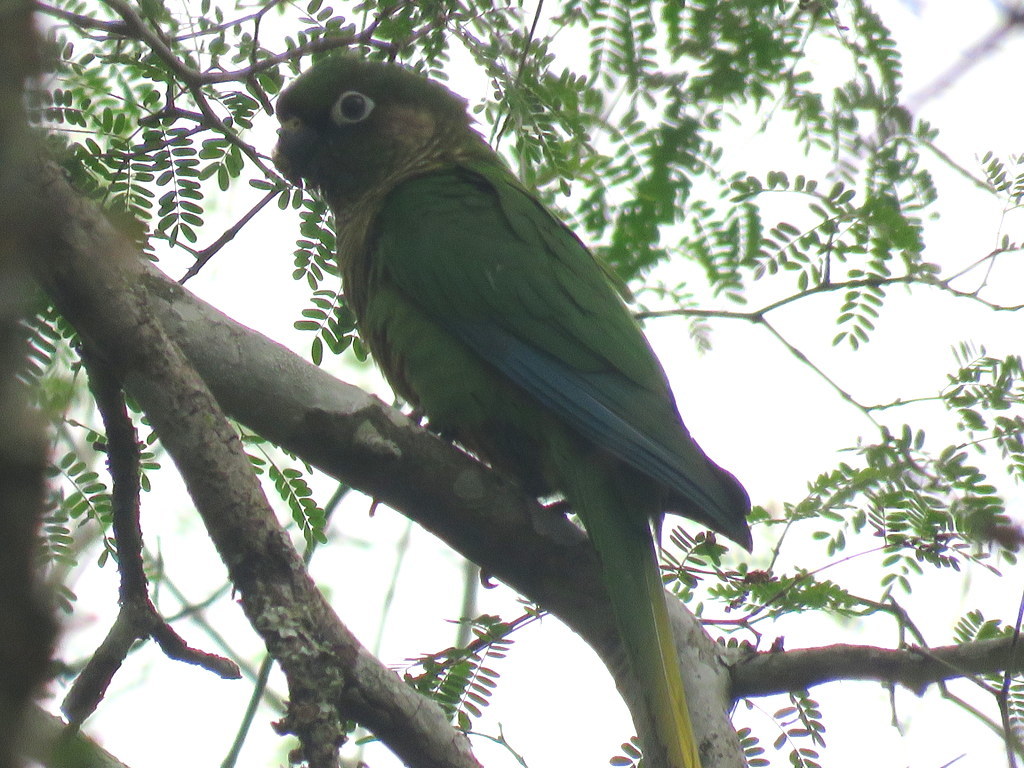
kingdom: Animalia
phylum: Chordata
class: Aves
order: Psittaciformes
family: Psittacidae
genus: Pyrrhura
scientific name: Pyrrhura frontalis
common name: Maroon-bellied parakeet
